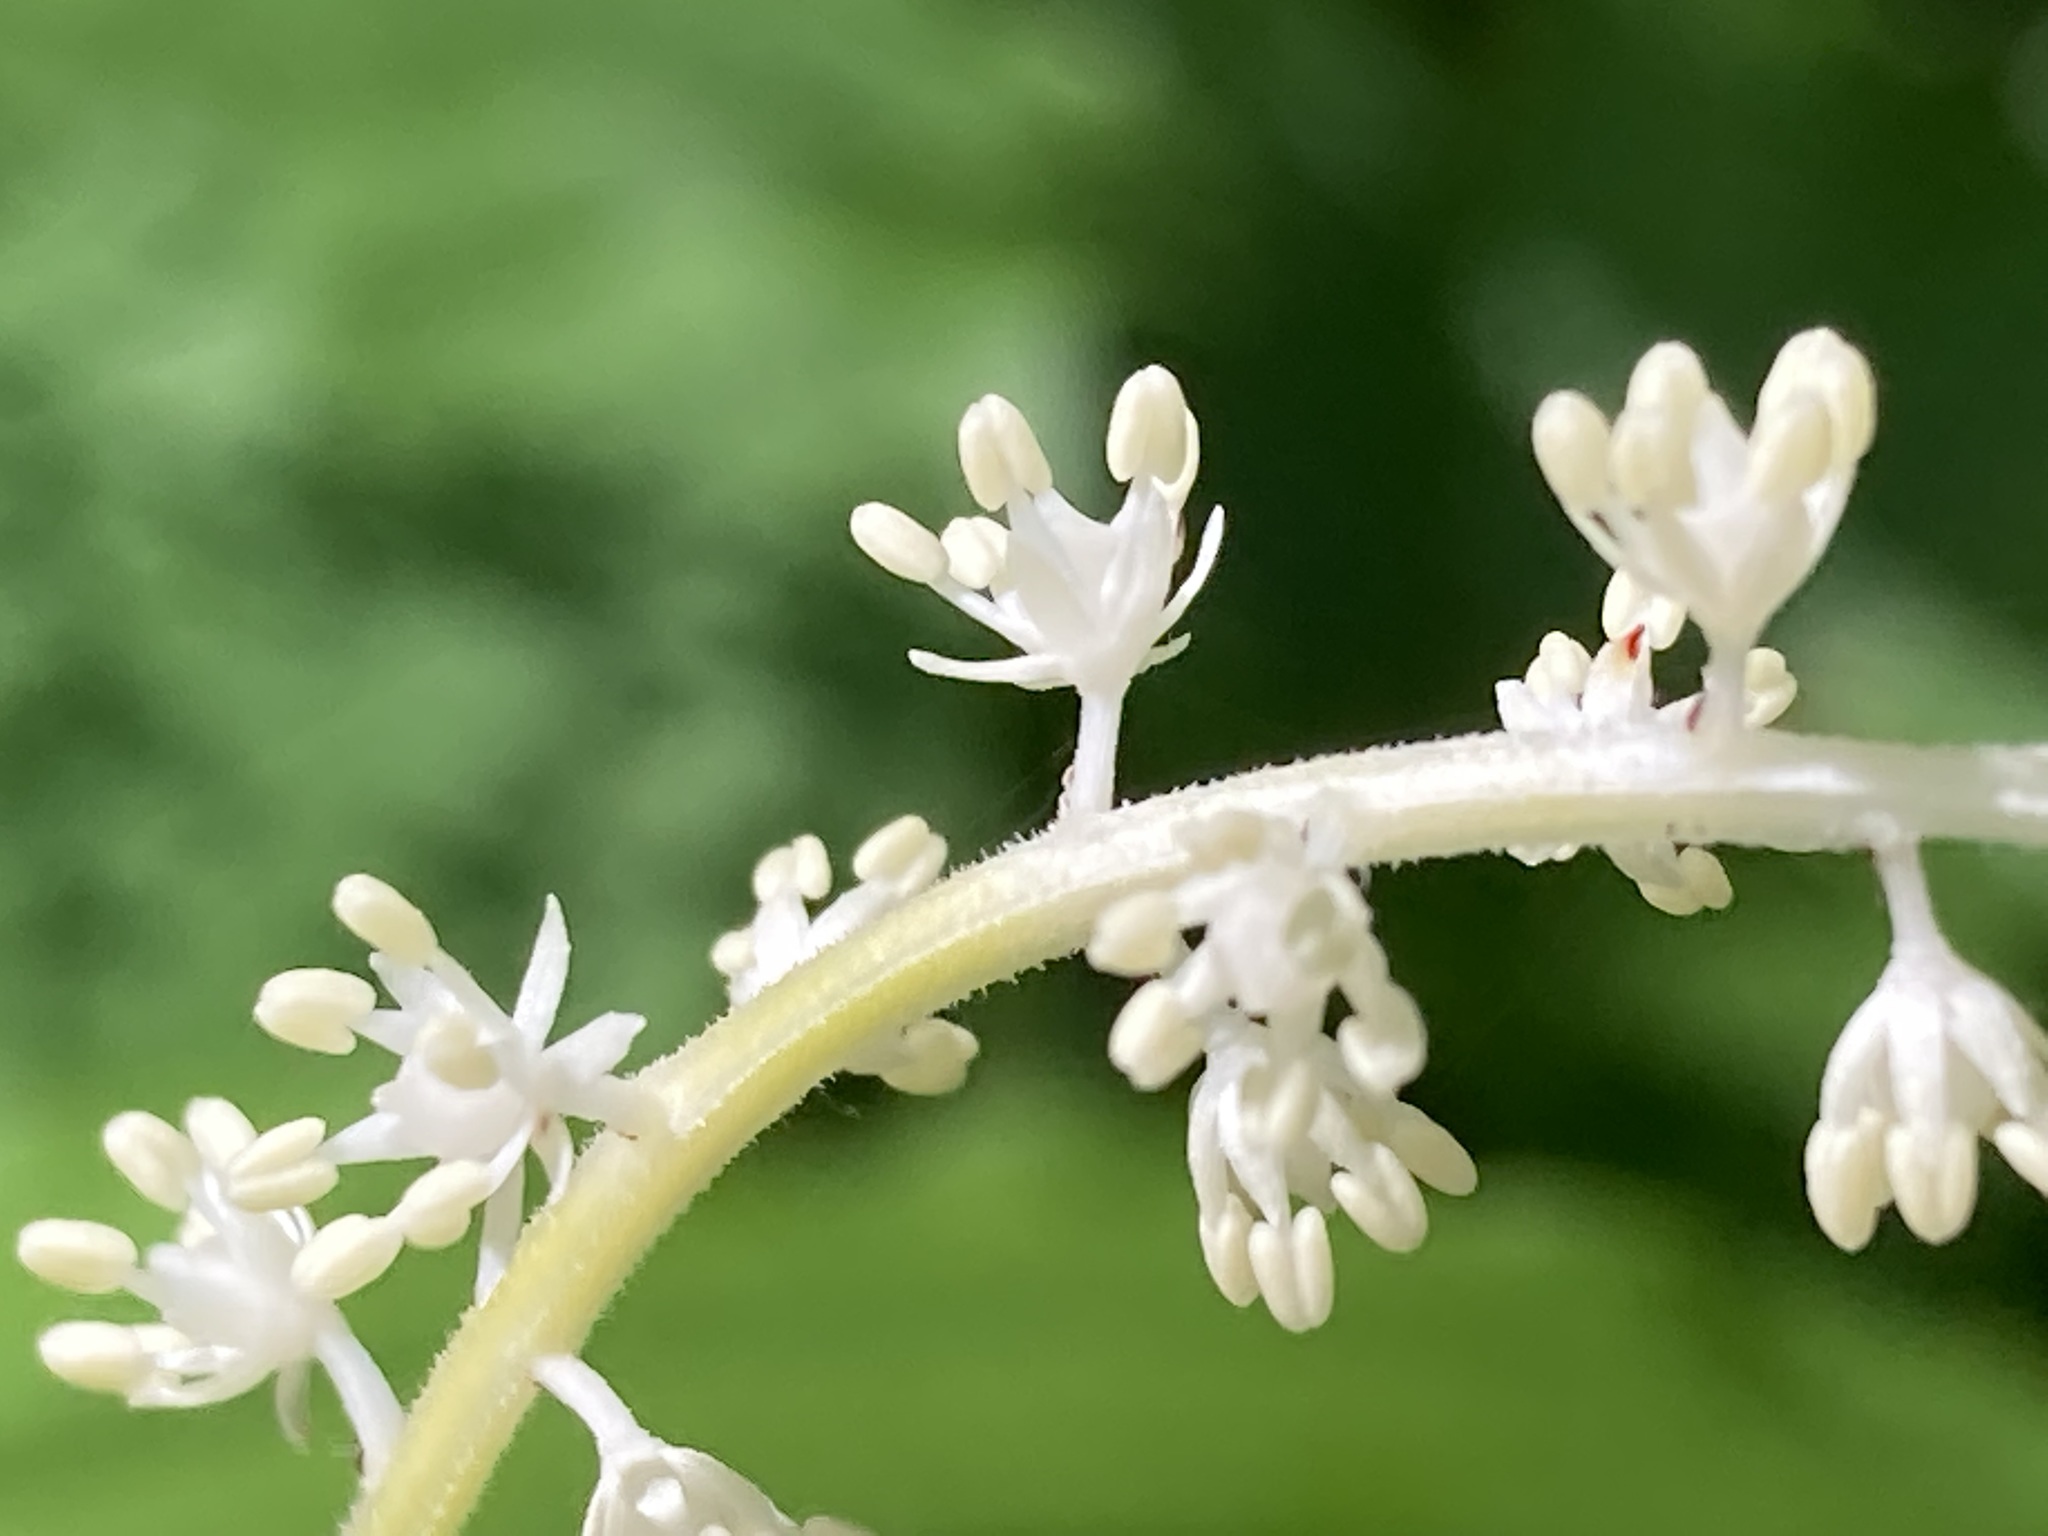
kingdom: Plantae
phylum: Tracheophyta
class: Liliopsida
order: Asparagales
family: Asparagaceae
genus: Maianthemum
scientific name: Maianthemum racemosum
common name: False spikenard
